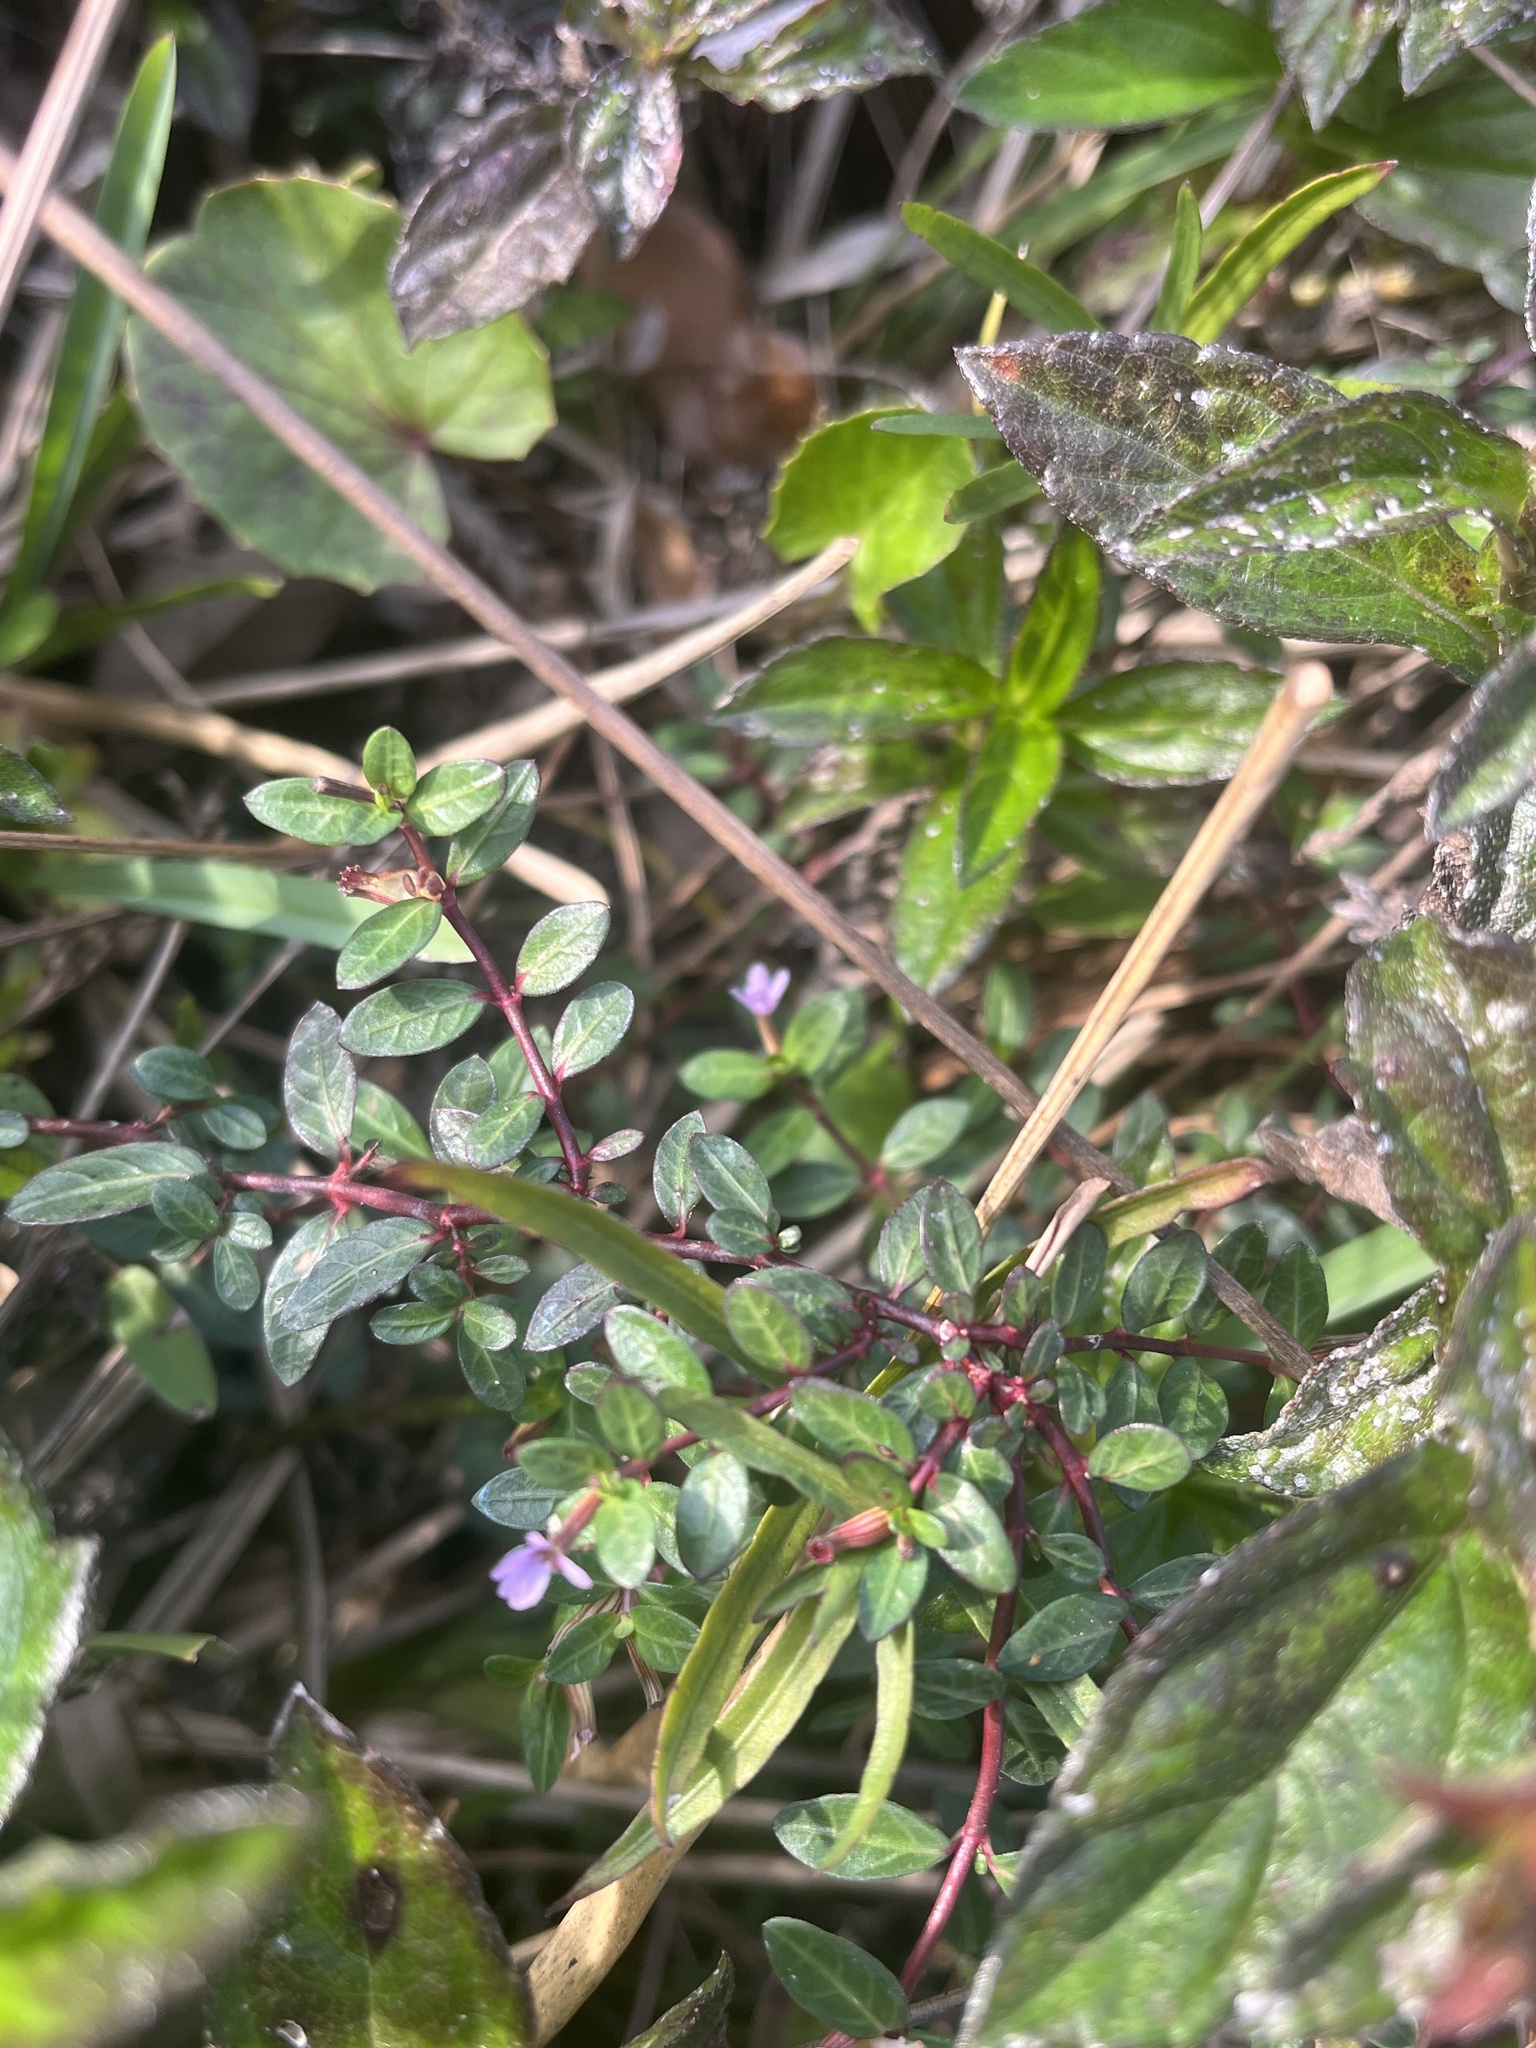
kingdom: Plantae
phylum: Tracheophyta
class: Magnoliopsida
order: Myrtales
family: Lythraceae
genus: Cuphea
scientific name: Cuphea strigulosa
